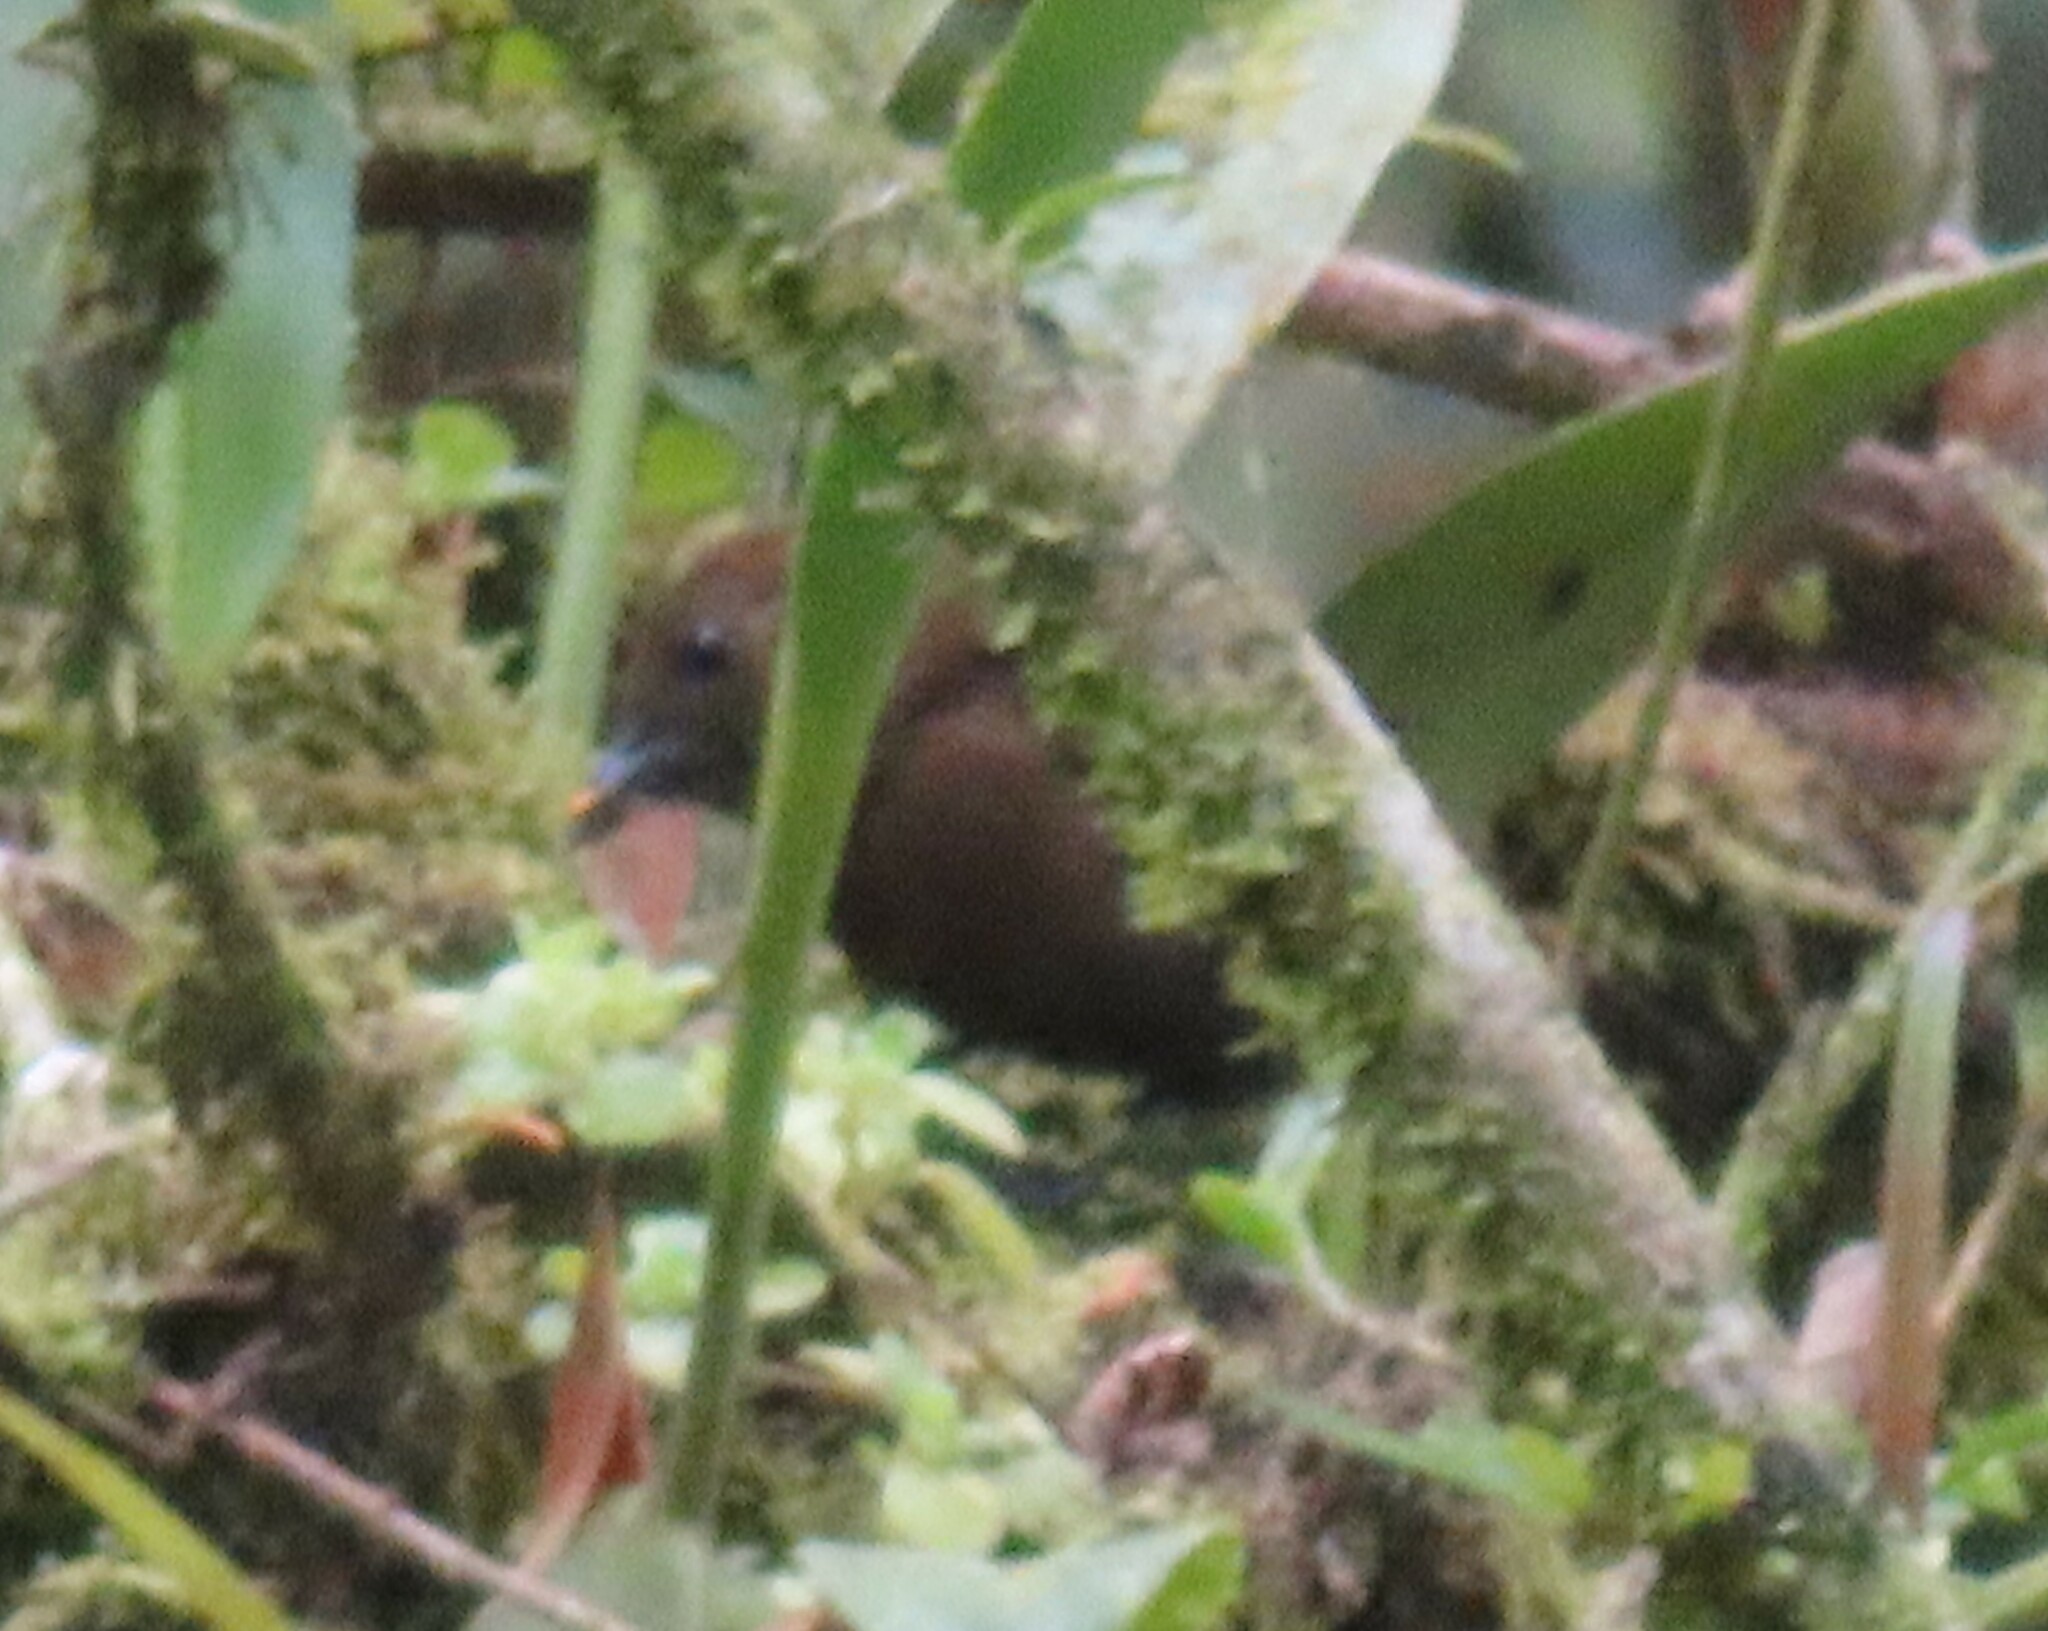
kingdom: Animalia
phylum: Chordata
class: Aves
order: Passeriformes
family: Thraupidae
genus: Tachyphonus
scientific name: Tachyphonus delatrii
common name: Tawny-crested tanager
